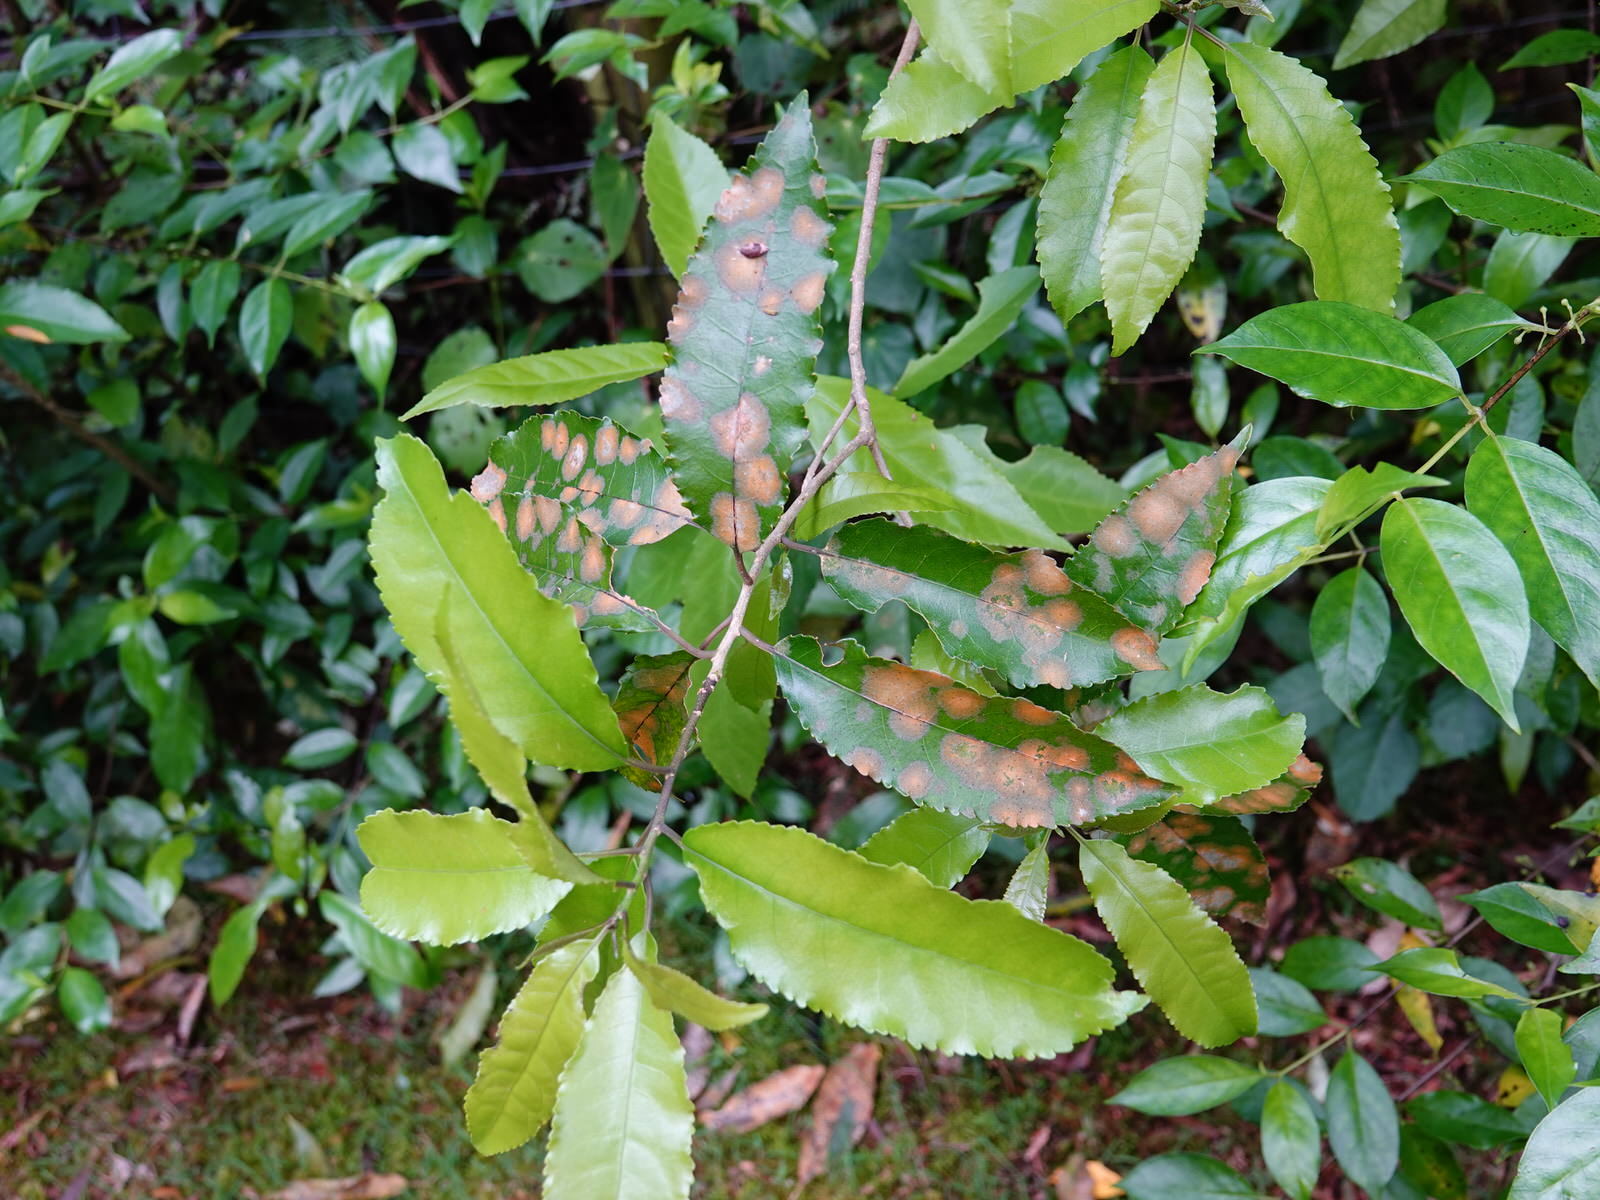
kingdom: Plantae
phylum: Tracheophyta
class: Magnoliopsida
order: Malpighiales
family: Violaceae
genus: Melicytus
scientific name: Melicytus ramiflorus
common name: Mahoe
